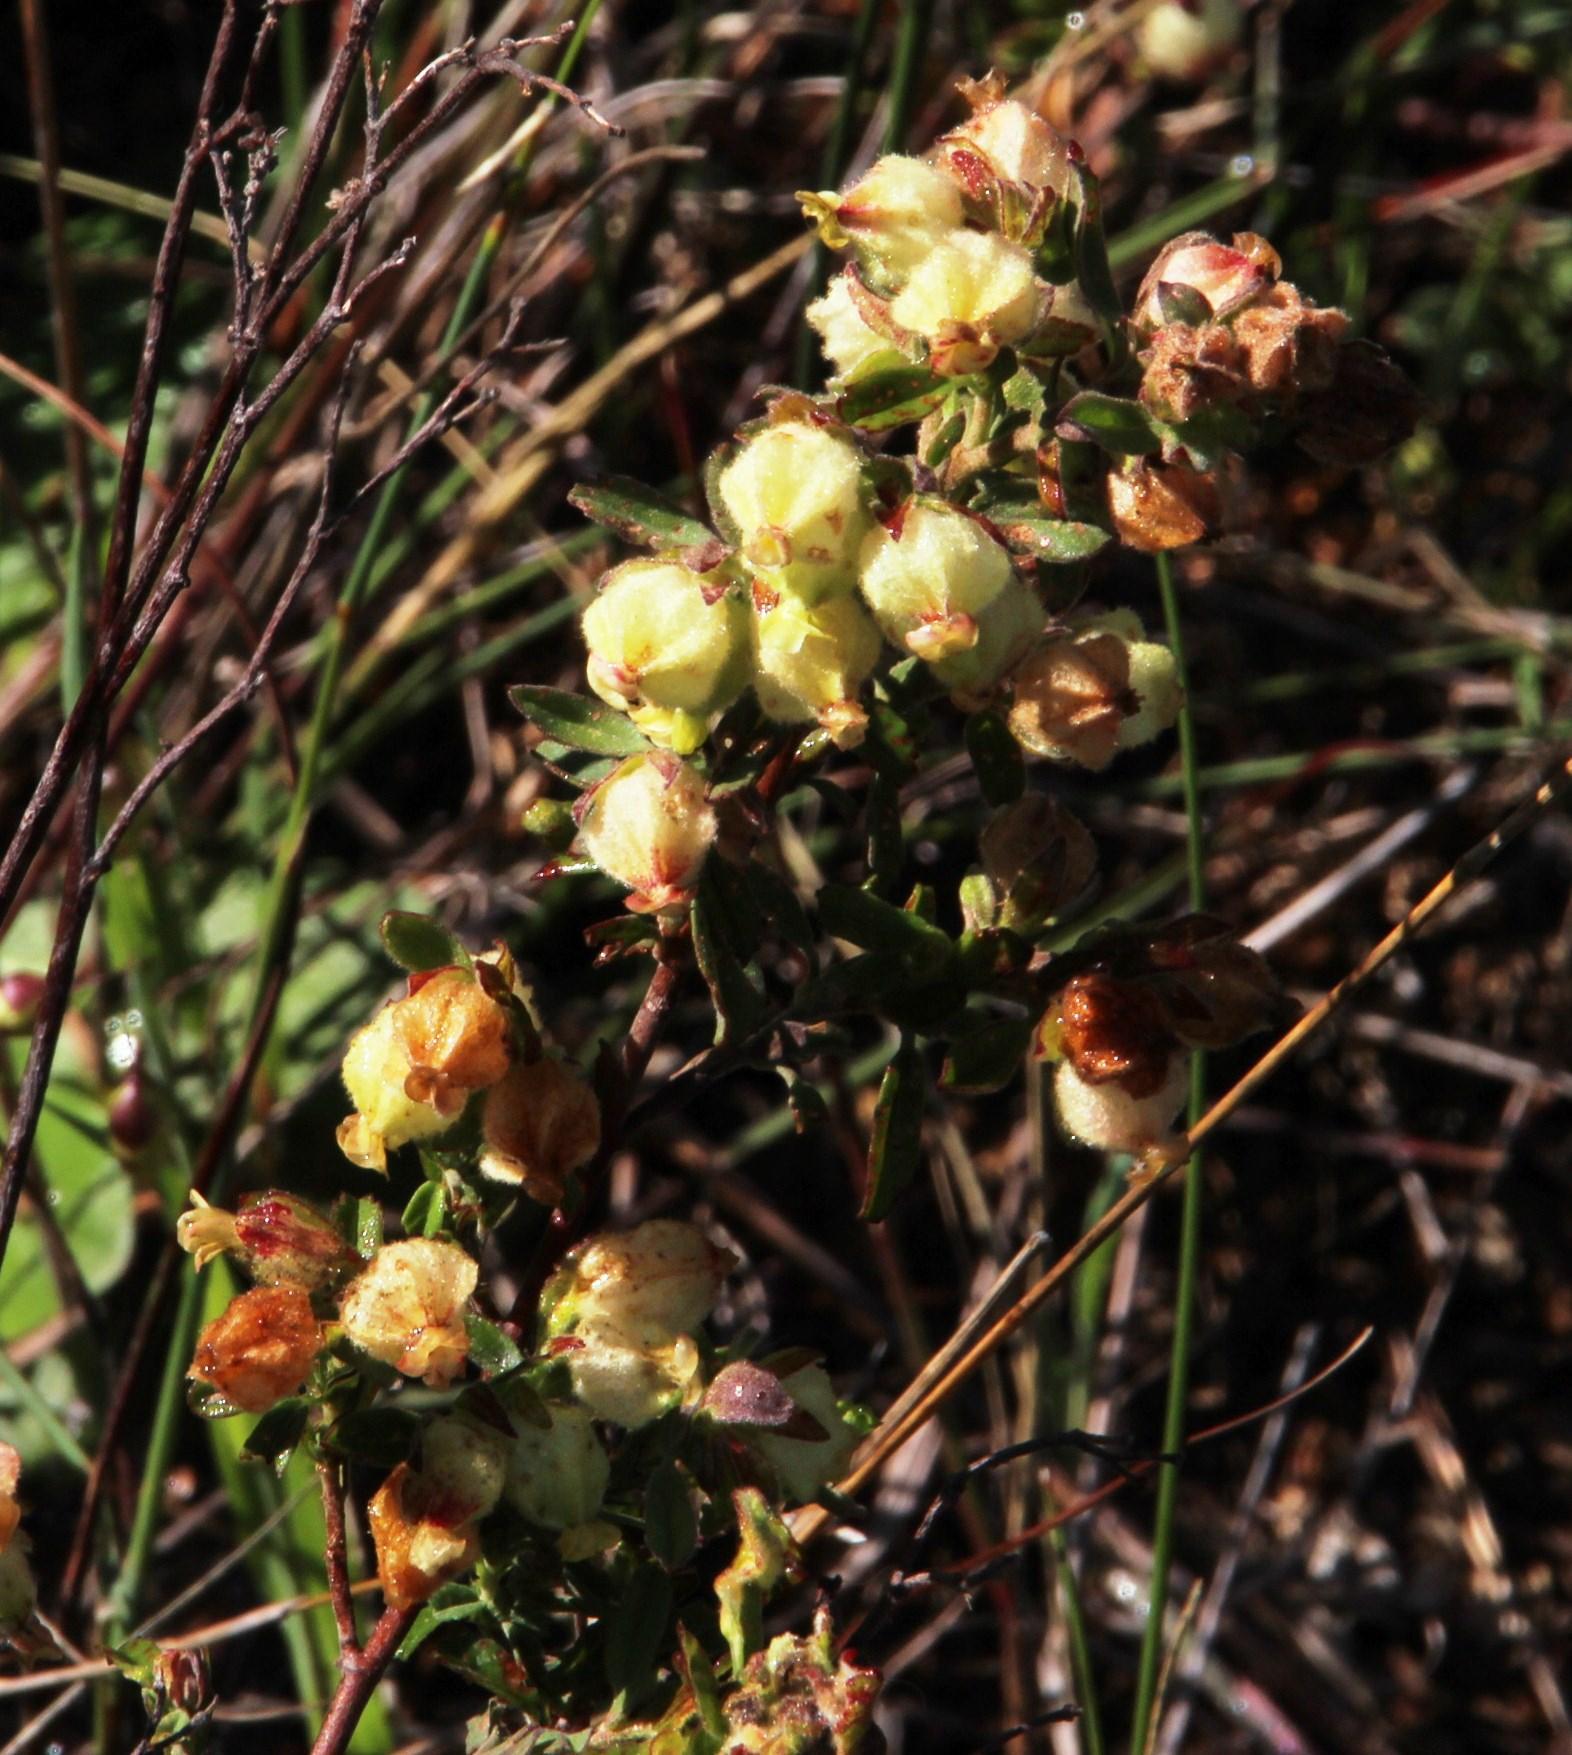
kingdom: Plantae
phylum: Tracheophyta
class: Magnoliopsida
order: Malvales
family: Malvaceae
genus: Hermannia
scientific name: Hermannia hyssopifolia
